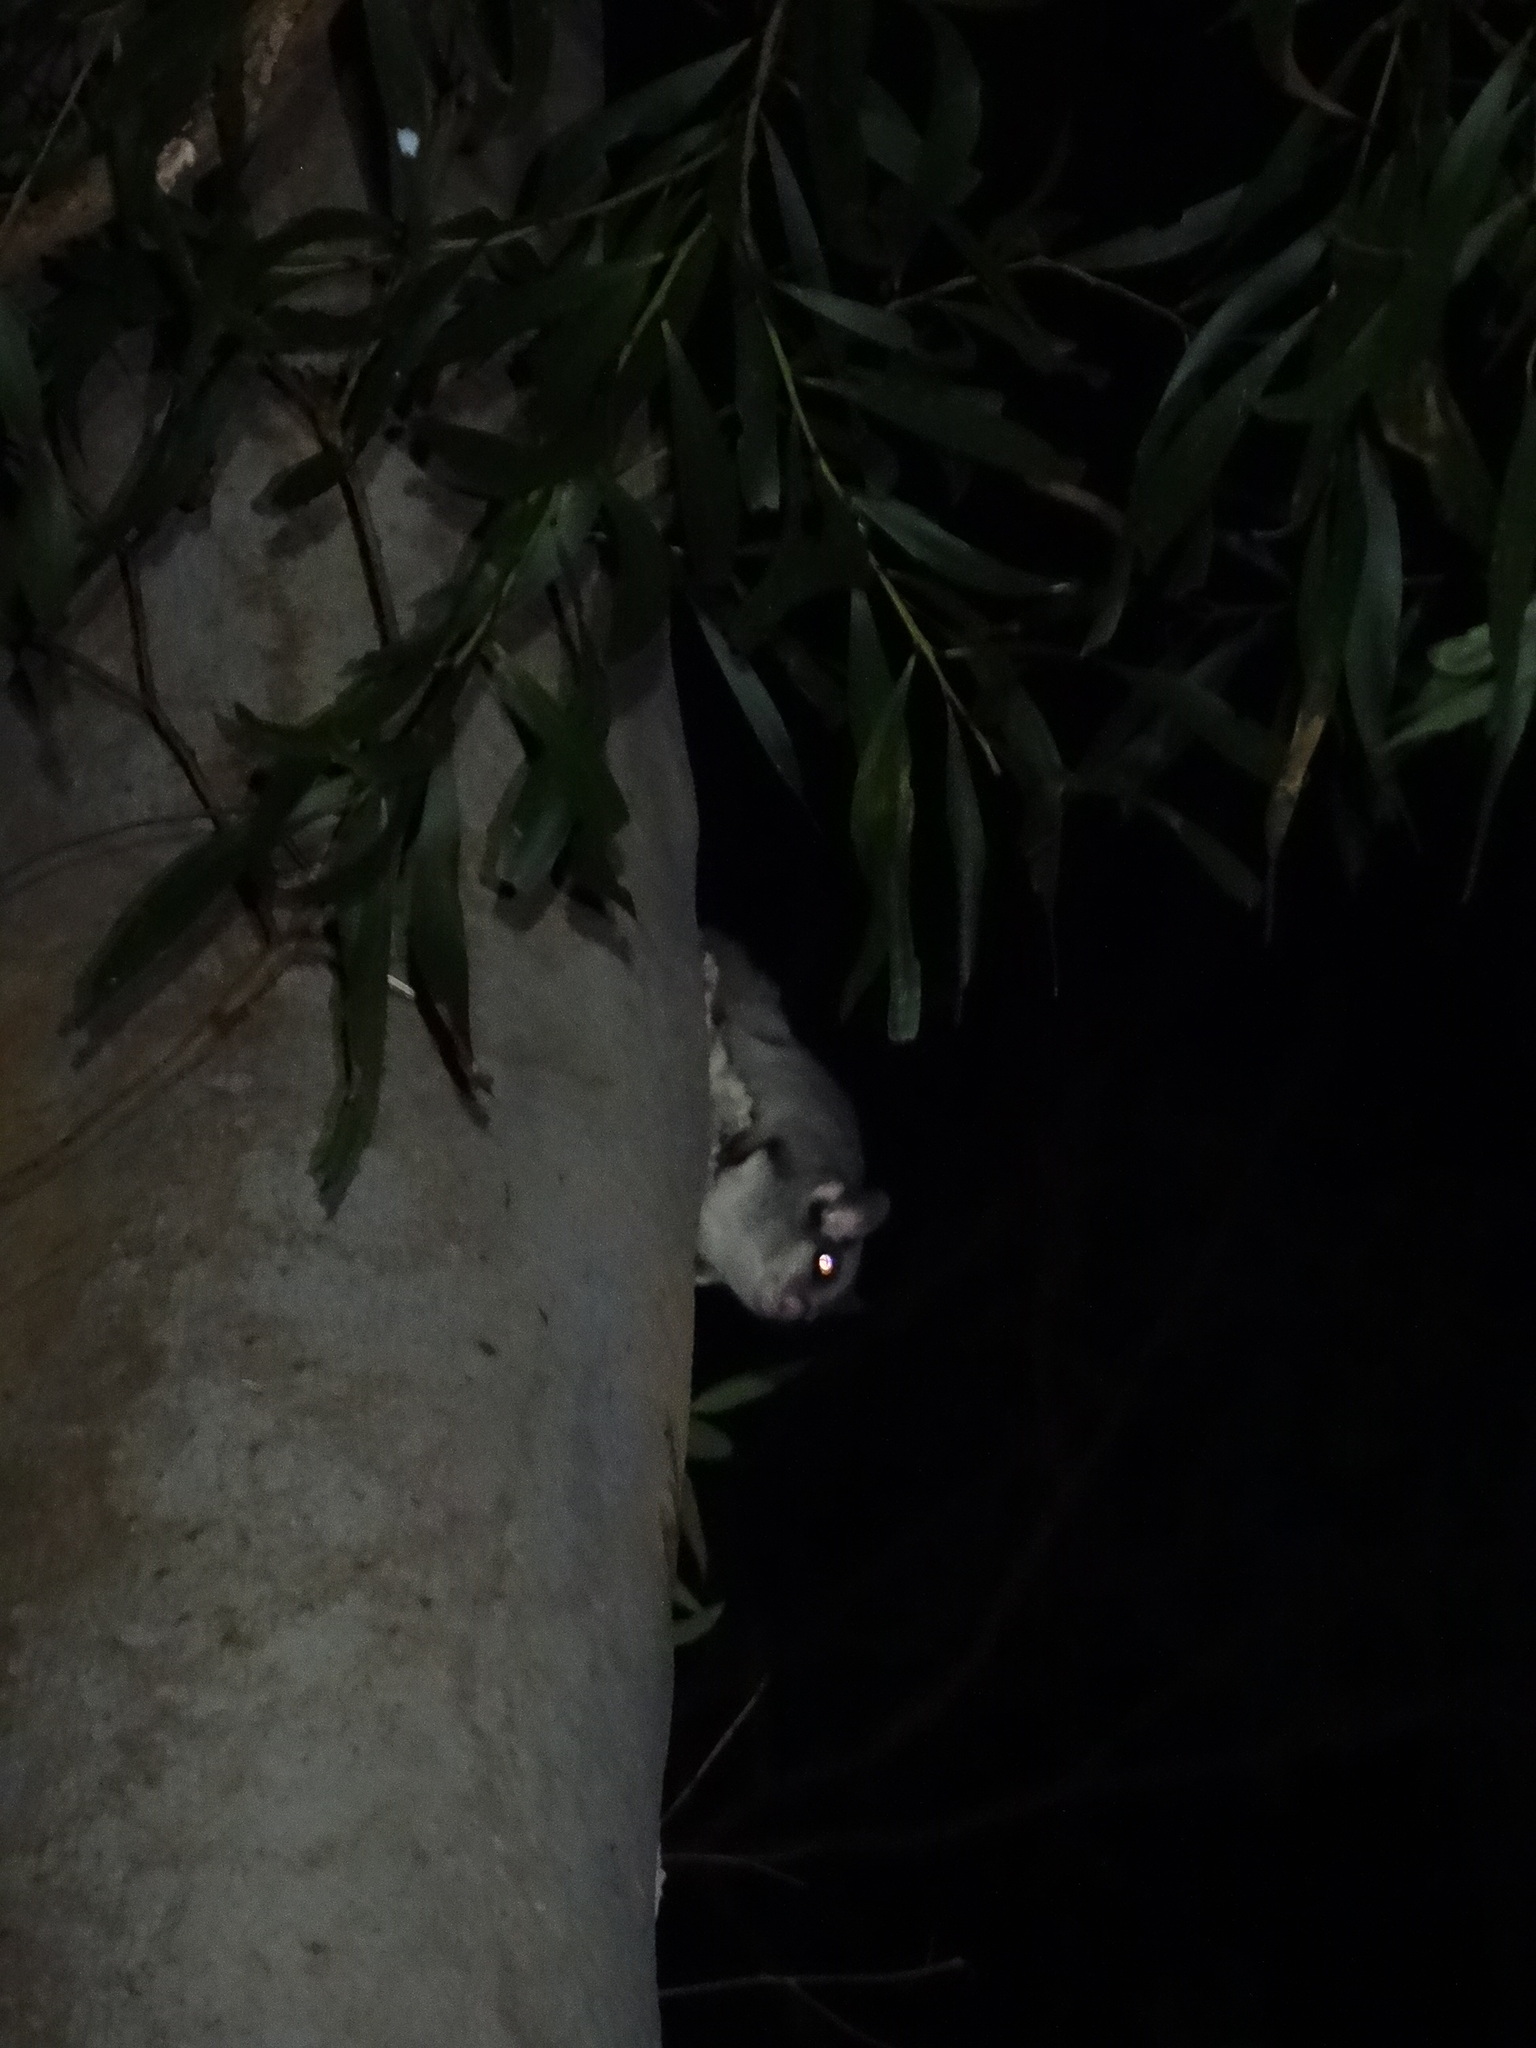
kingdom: Animalia
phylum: Chordata
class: Mammalia
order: Diprotodontia
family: Petauridae
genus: Petaurus
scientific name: Petaurus norfolcensis
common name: Squirrel glider
